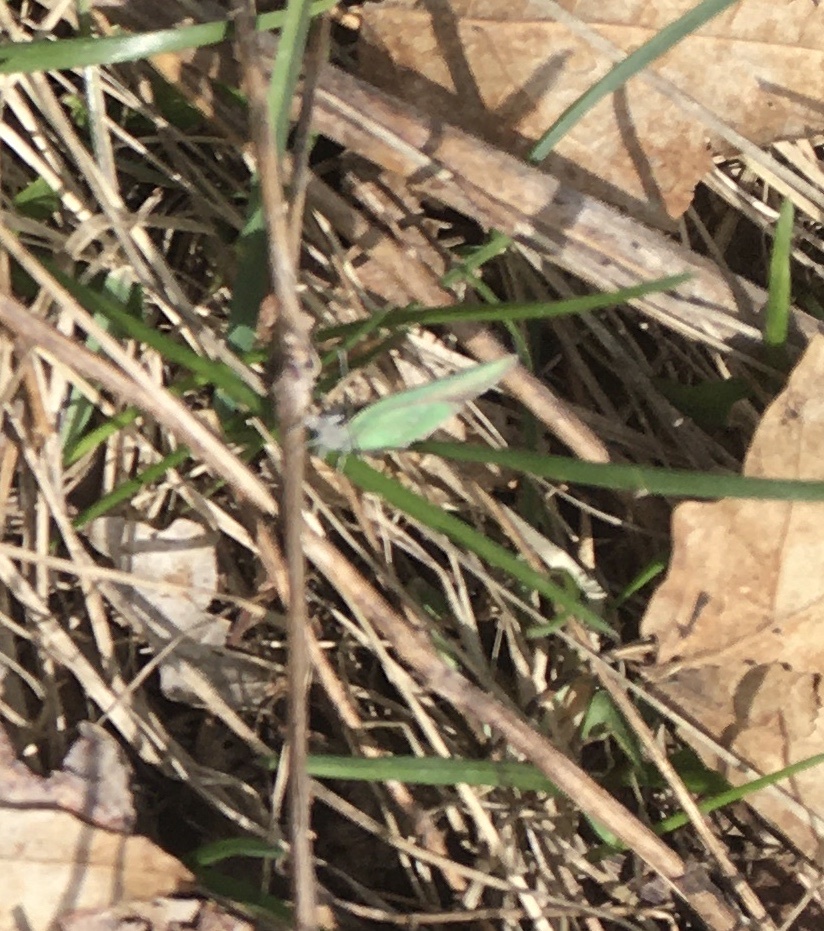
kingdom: Animalia
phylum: Arthropoda
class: Insecta
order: Lepidoptera
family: Lycaenidae
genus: Thecla
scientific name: Thecla sheridanii
